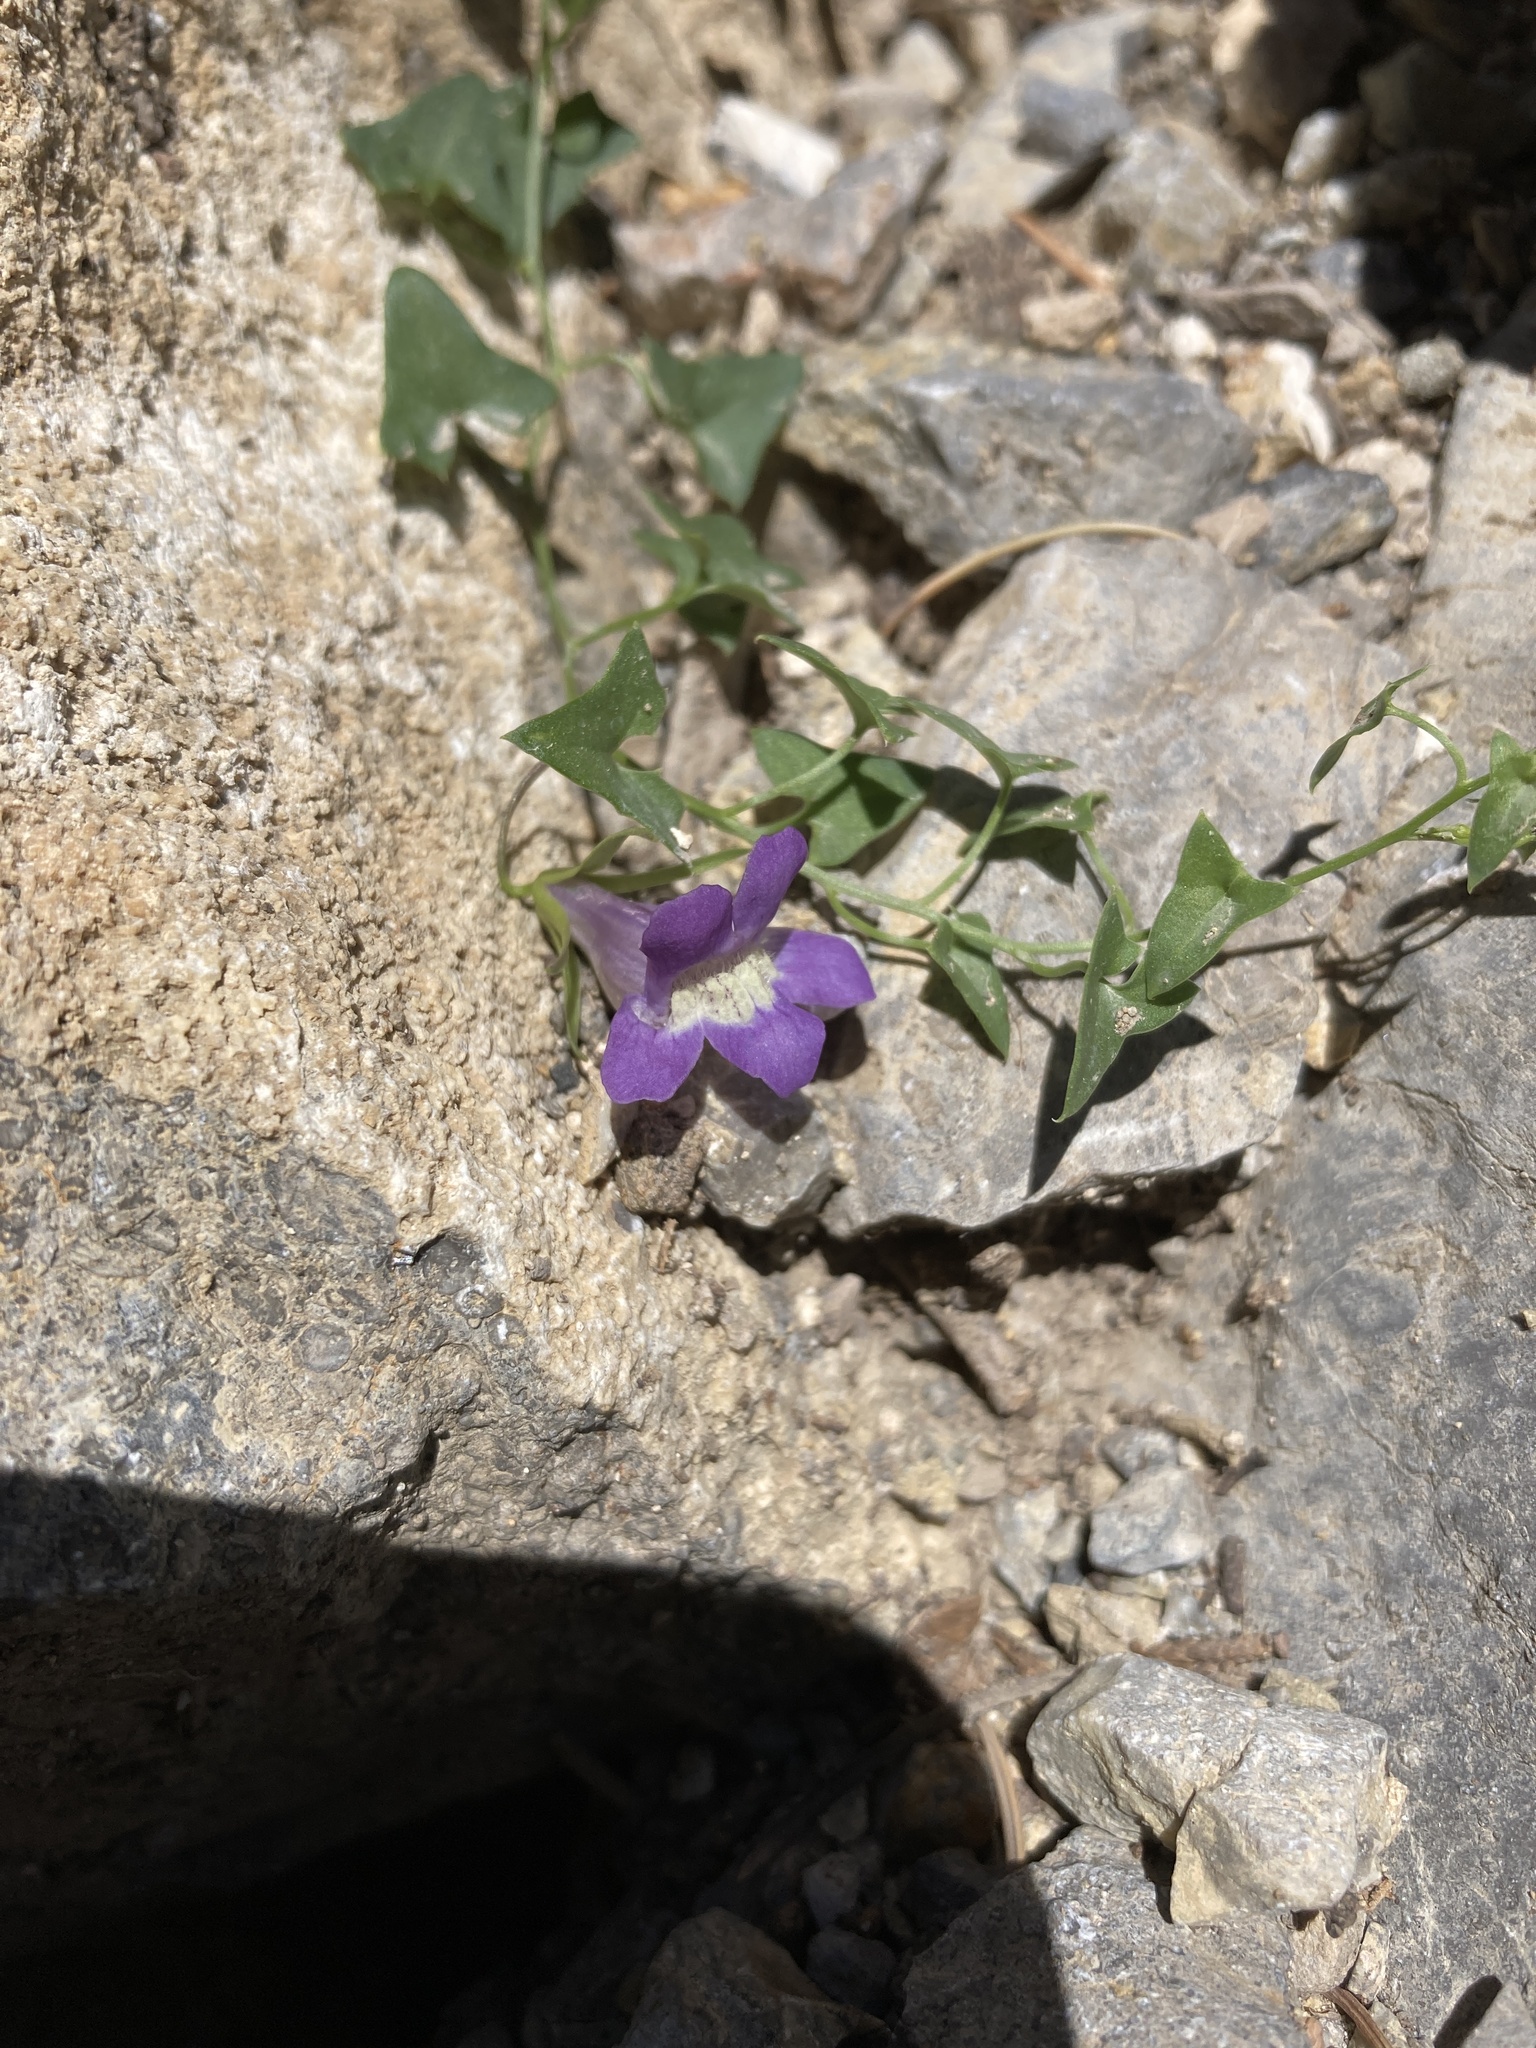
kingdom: Plantae
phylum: Tracheophyta
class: Magnoliopsida
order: Lamiales
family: Plantaginaceae
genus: Maurandella
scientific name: Maurandella antirrhiniflora
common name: Violet twining-snapdragon
